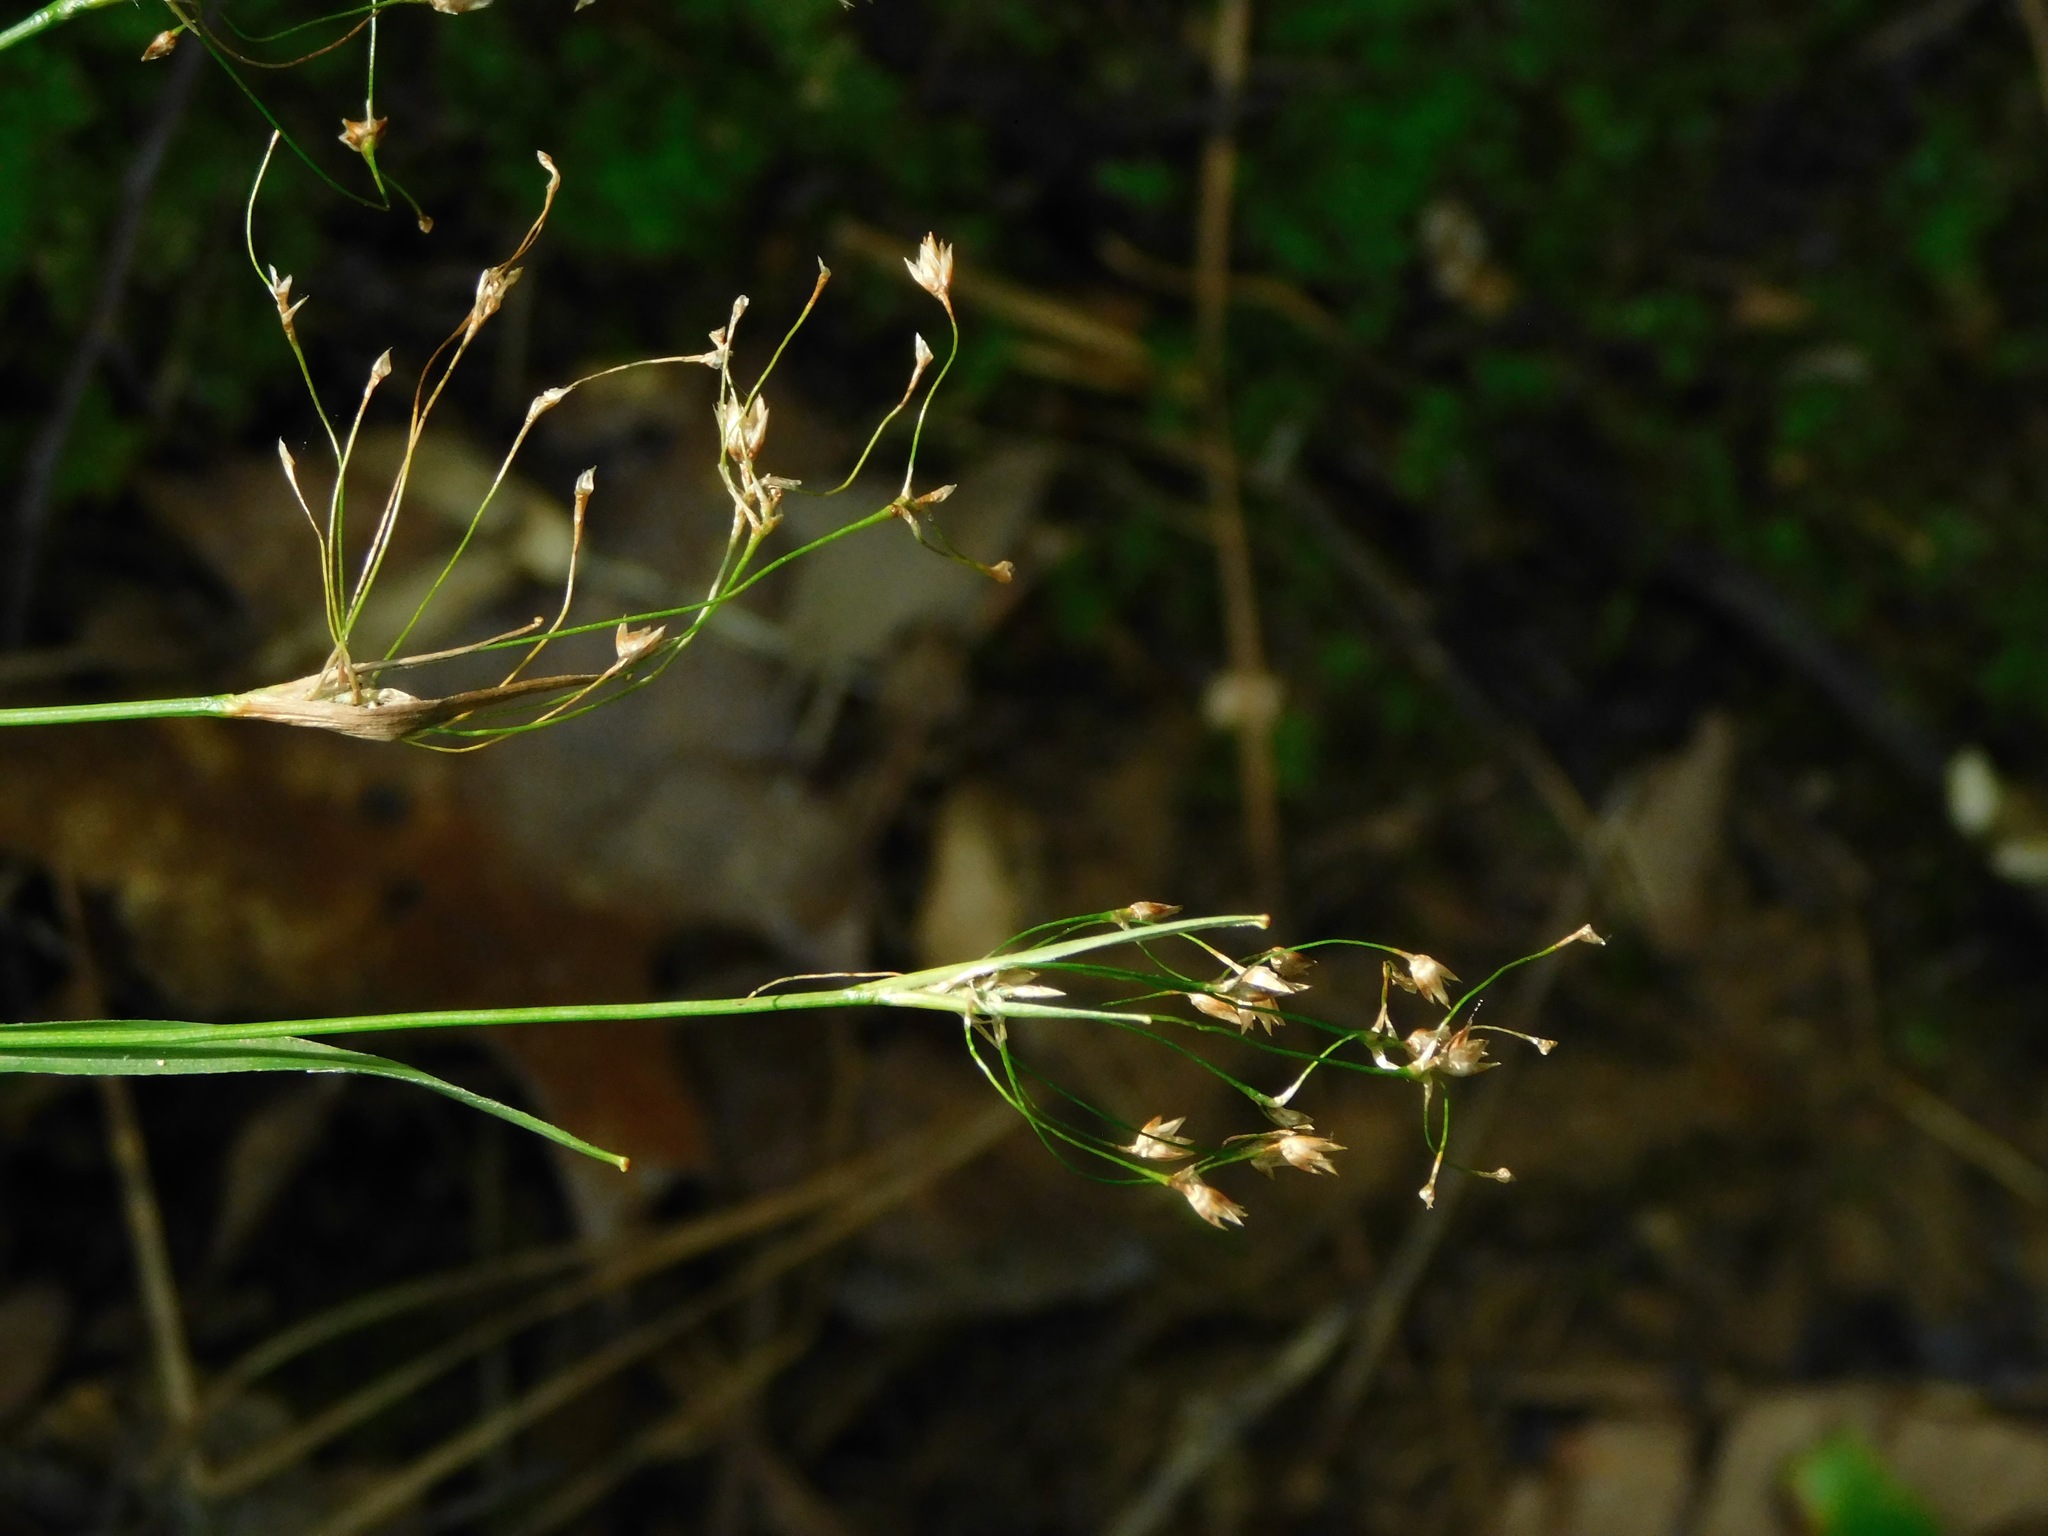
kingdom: Plantae
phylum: Tracheophyta
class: Liliopsida
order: Poales
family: Juncaceae
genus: Luzula
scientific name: Luzula acuminata
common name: Hairy woodrush
